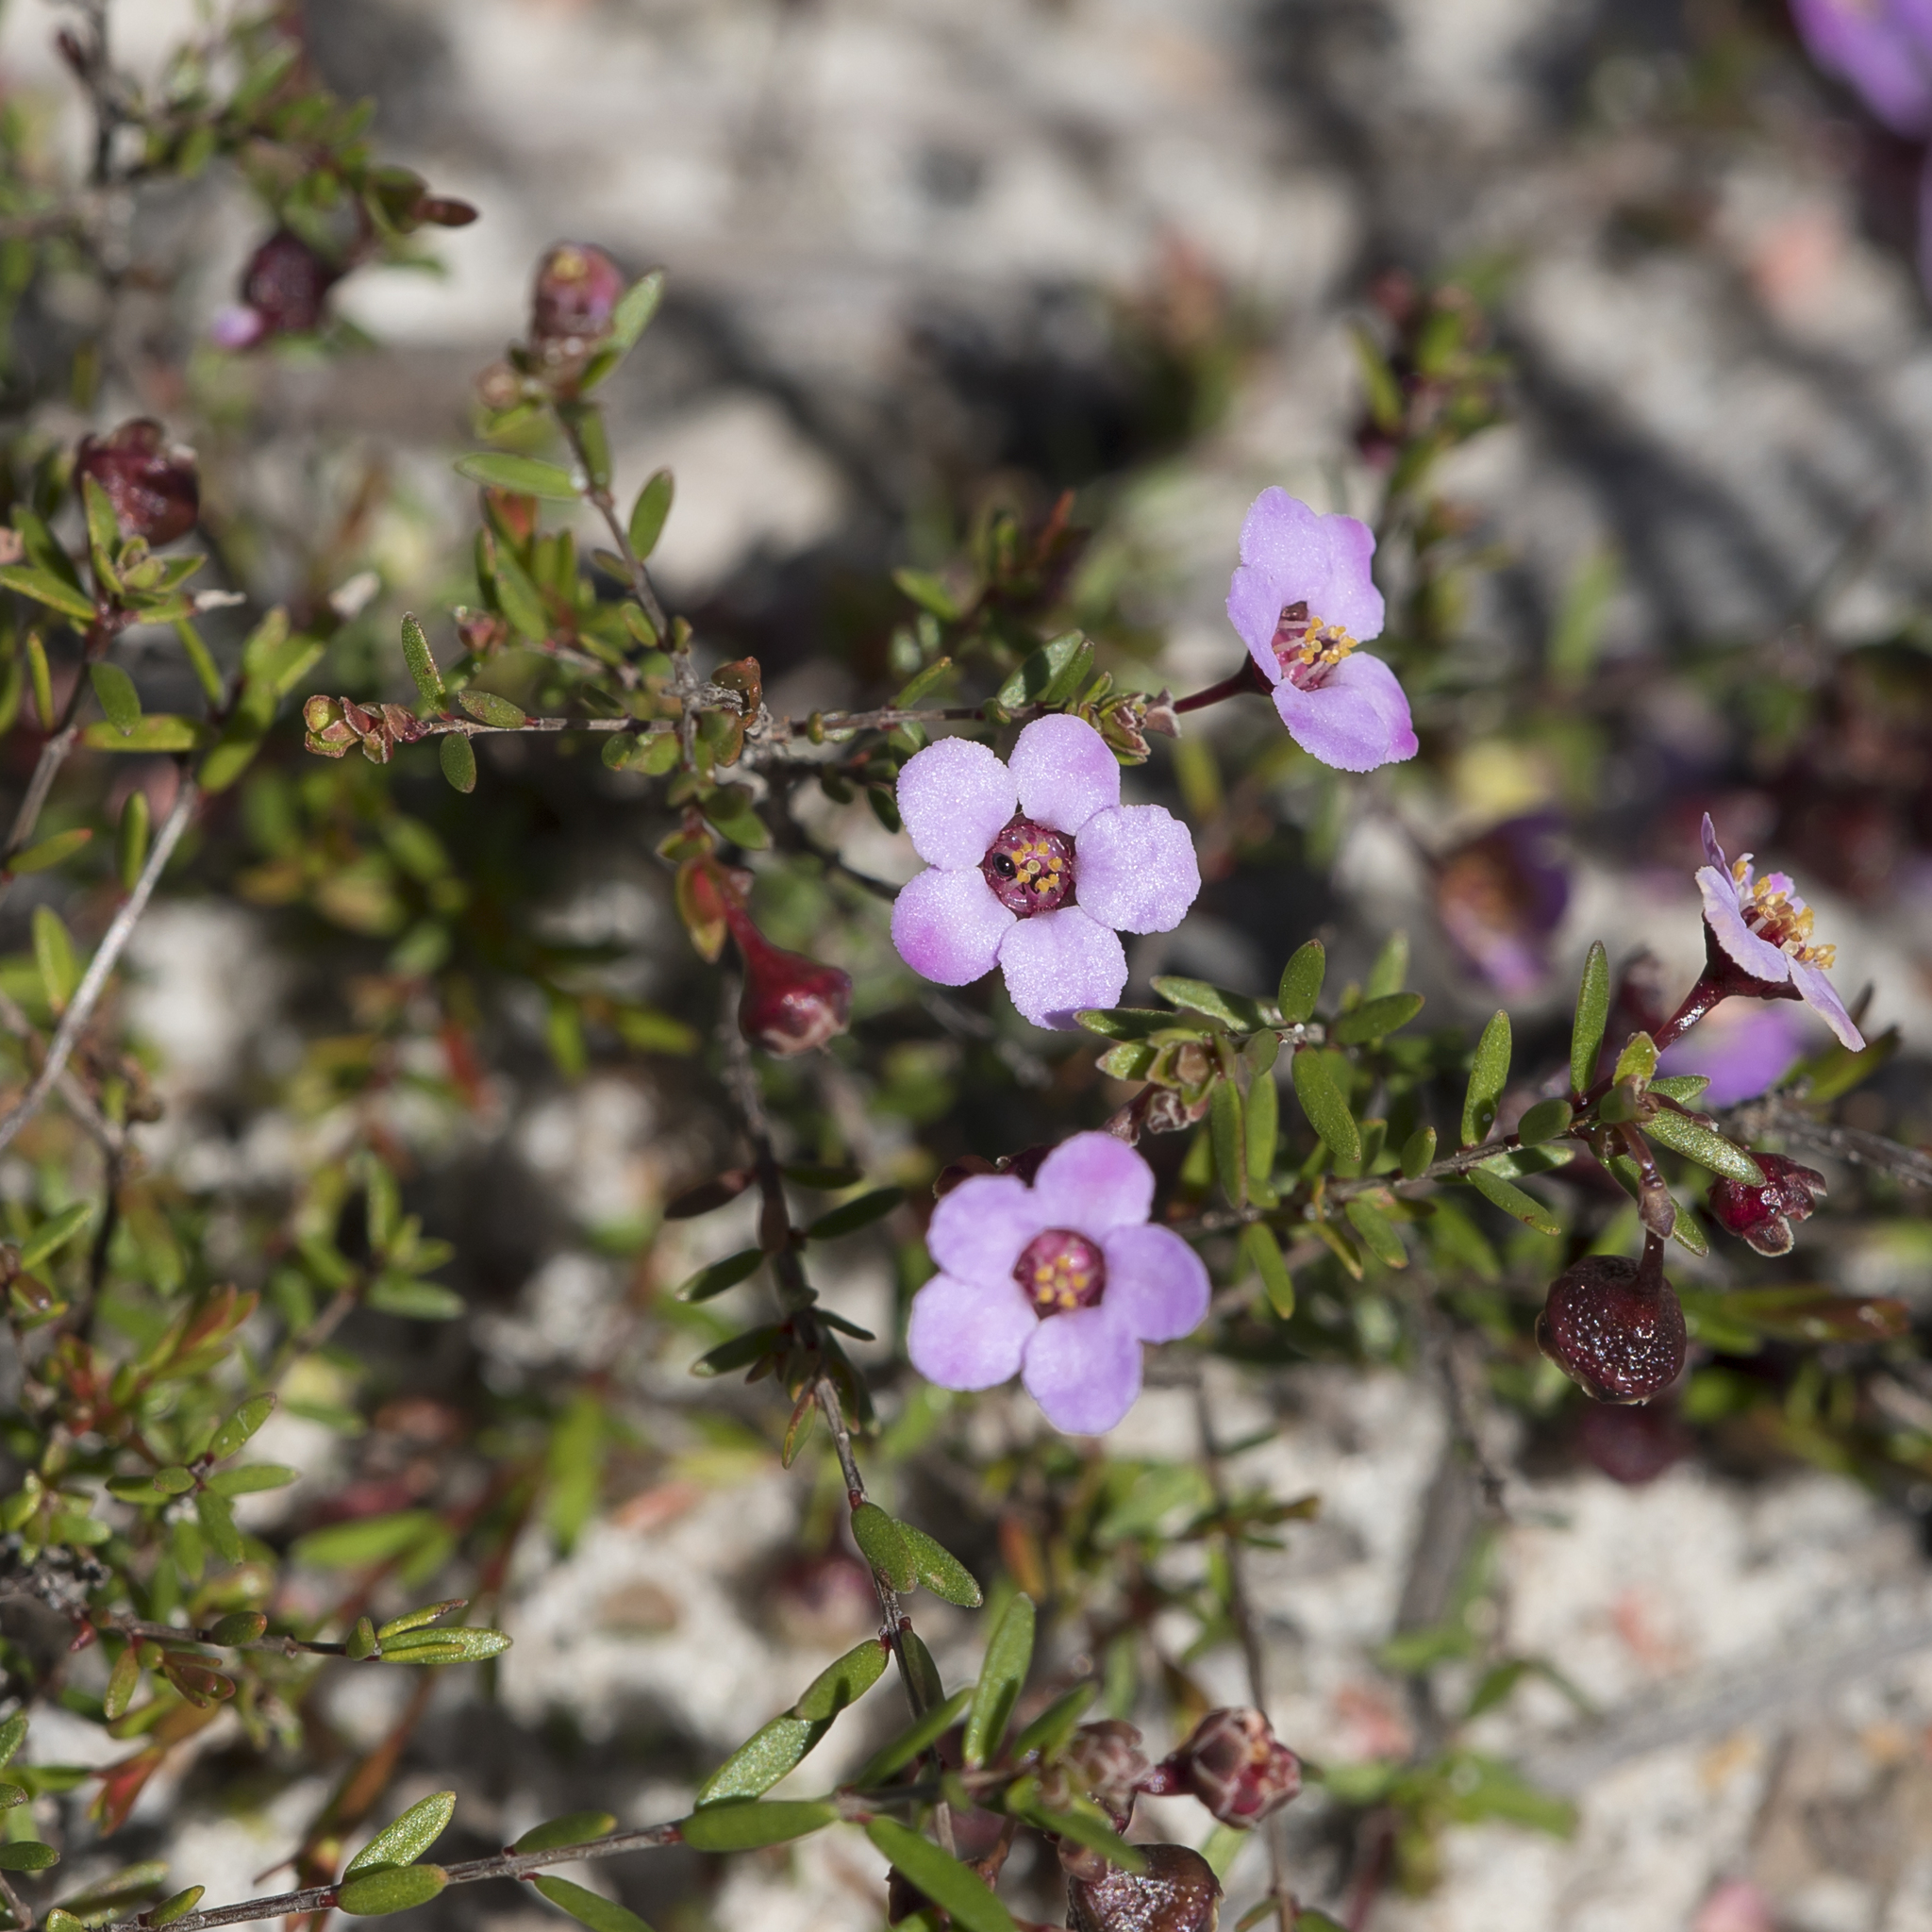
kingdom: Plantae
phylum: Tracheophyta
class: Magnoliopsida
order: Myrtales
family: Myrtaceae
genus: Euryomyrtus
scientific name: Euryomyrtus ramosissima
